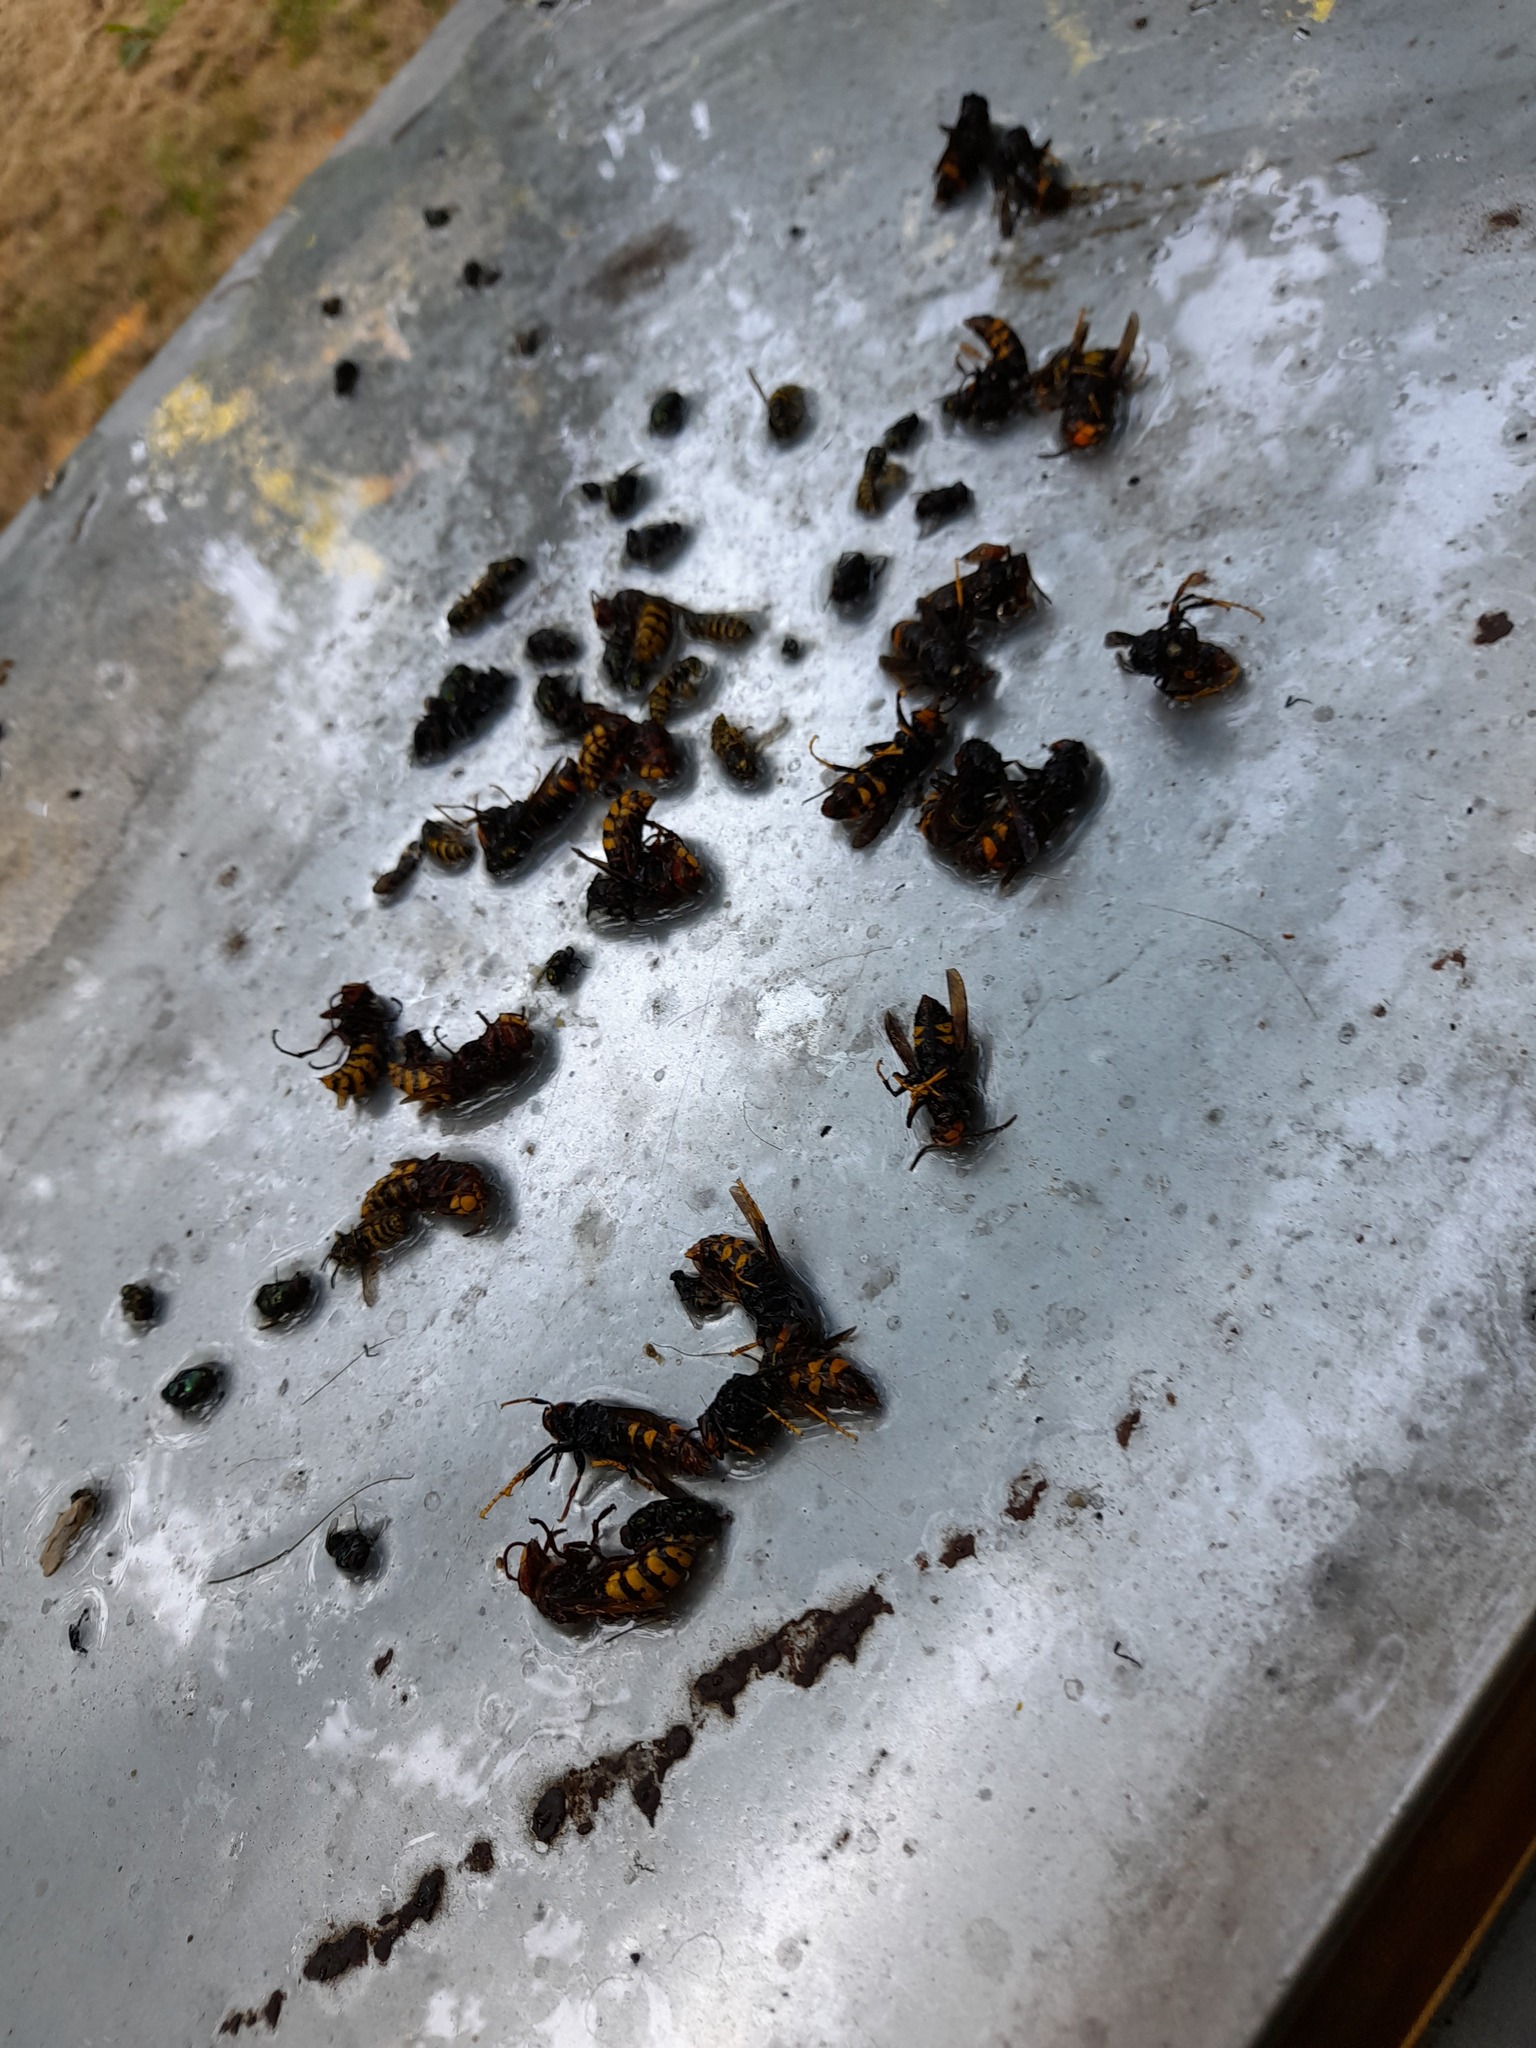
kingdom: Animalia
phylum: Arthropoda
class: Insecta
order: Hymenoptera
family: Vespidae
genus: Vespa
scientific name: Vespa velutina
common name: Asian hornet
